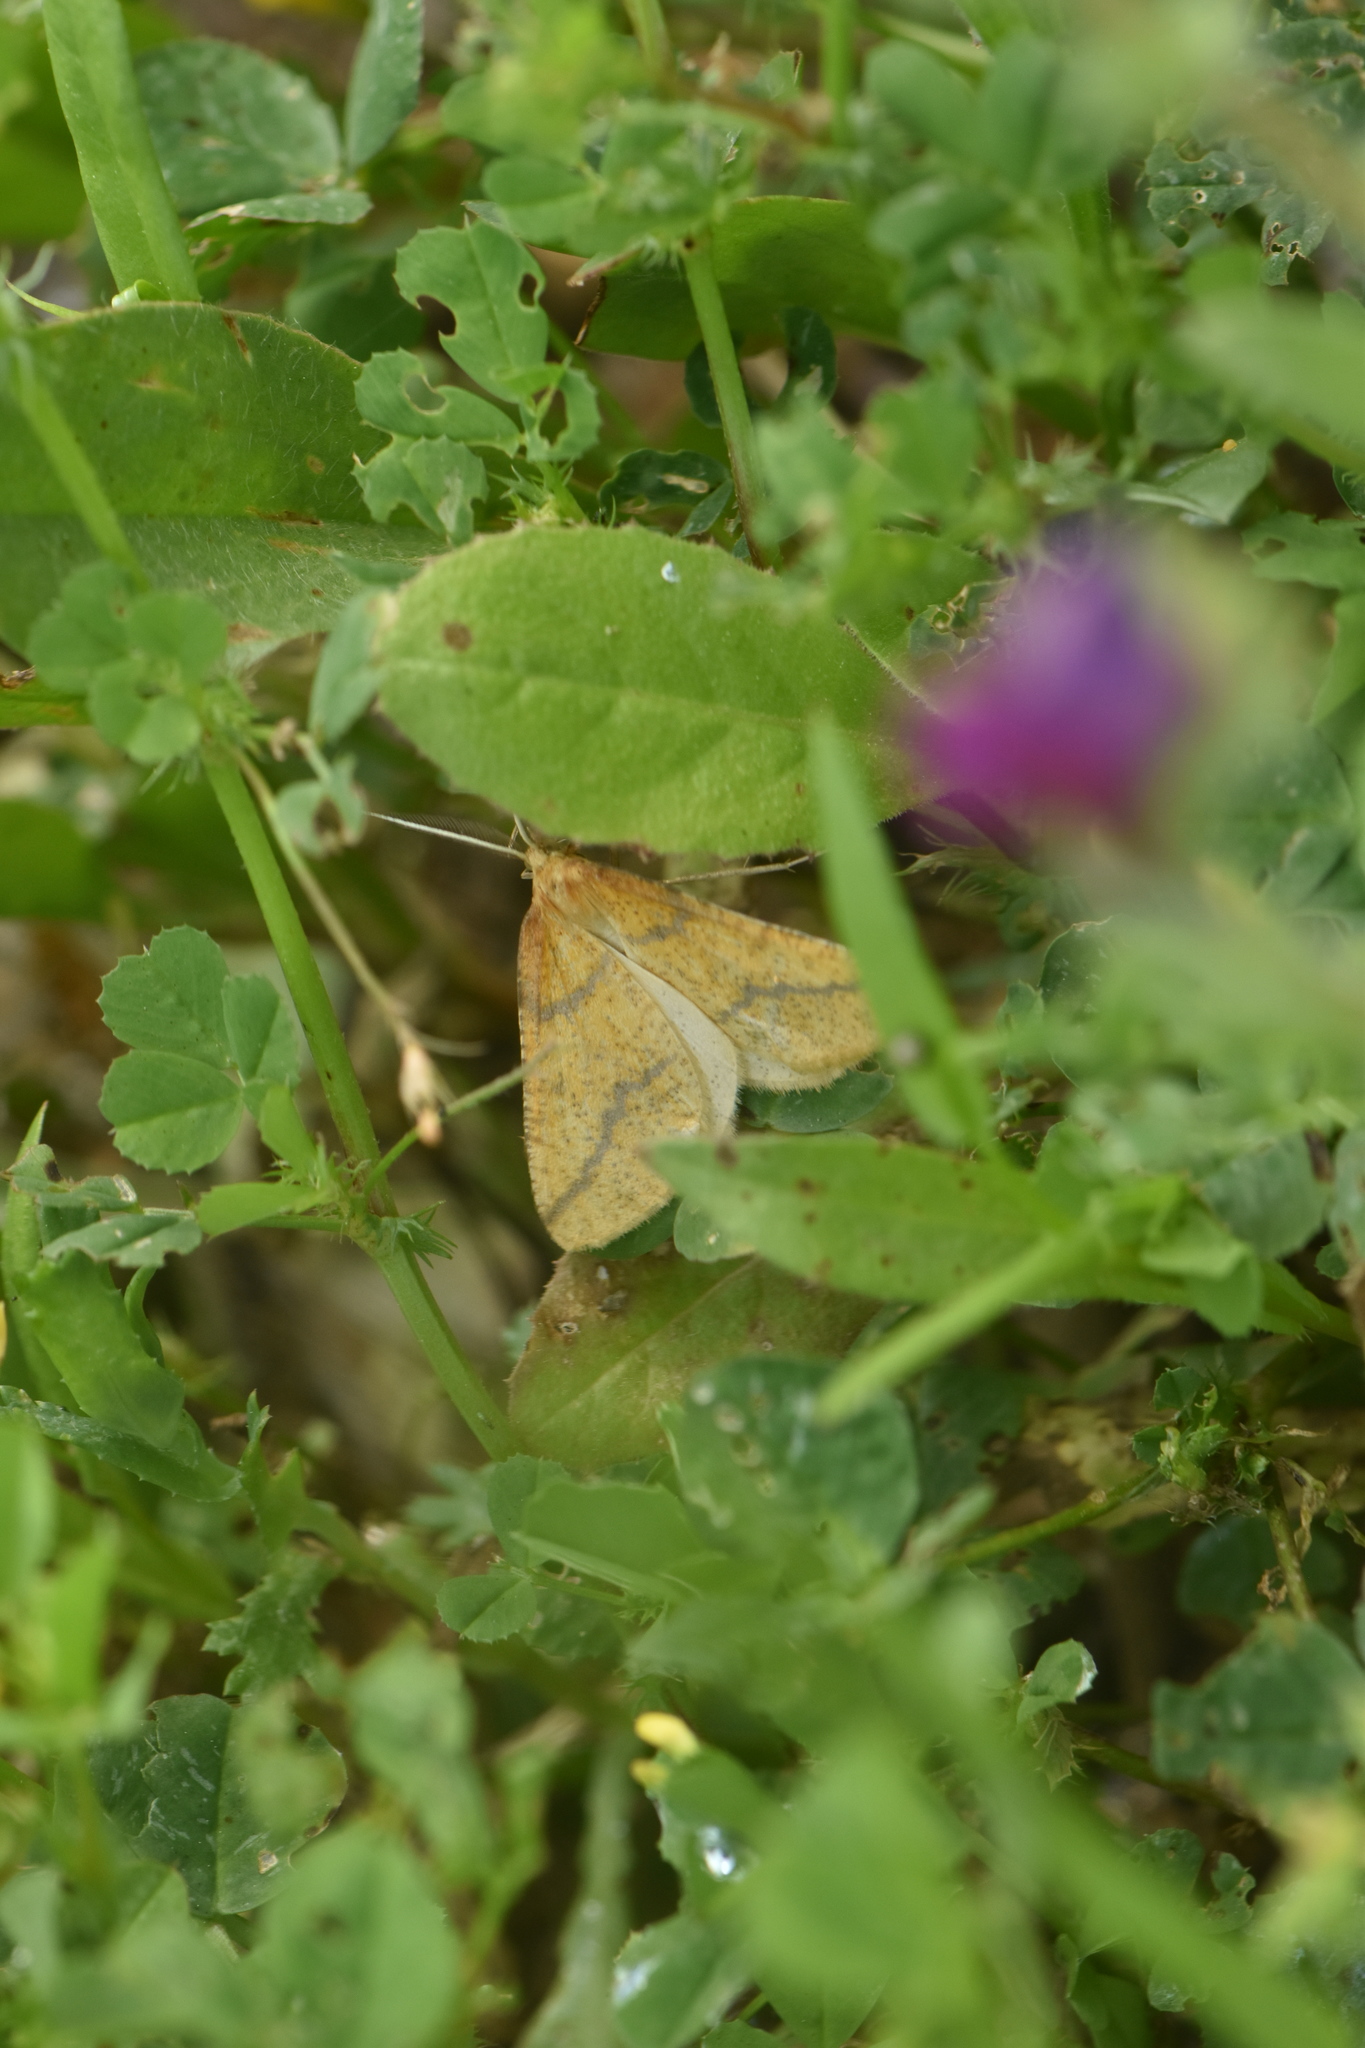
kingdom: Animalia
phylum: Arthropoda
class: Insecta
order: Lepidoptera
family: Geometridae
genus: Aspitates
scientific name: Aspitates ochrearia
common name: Yellow belle
